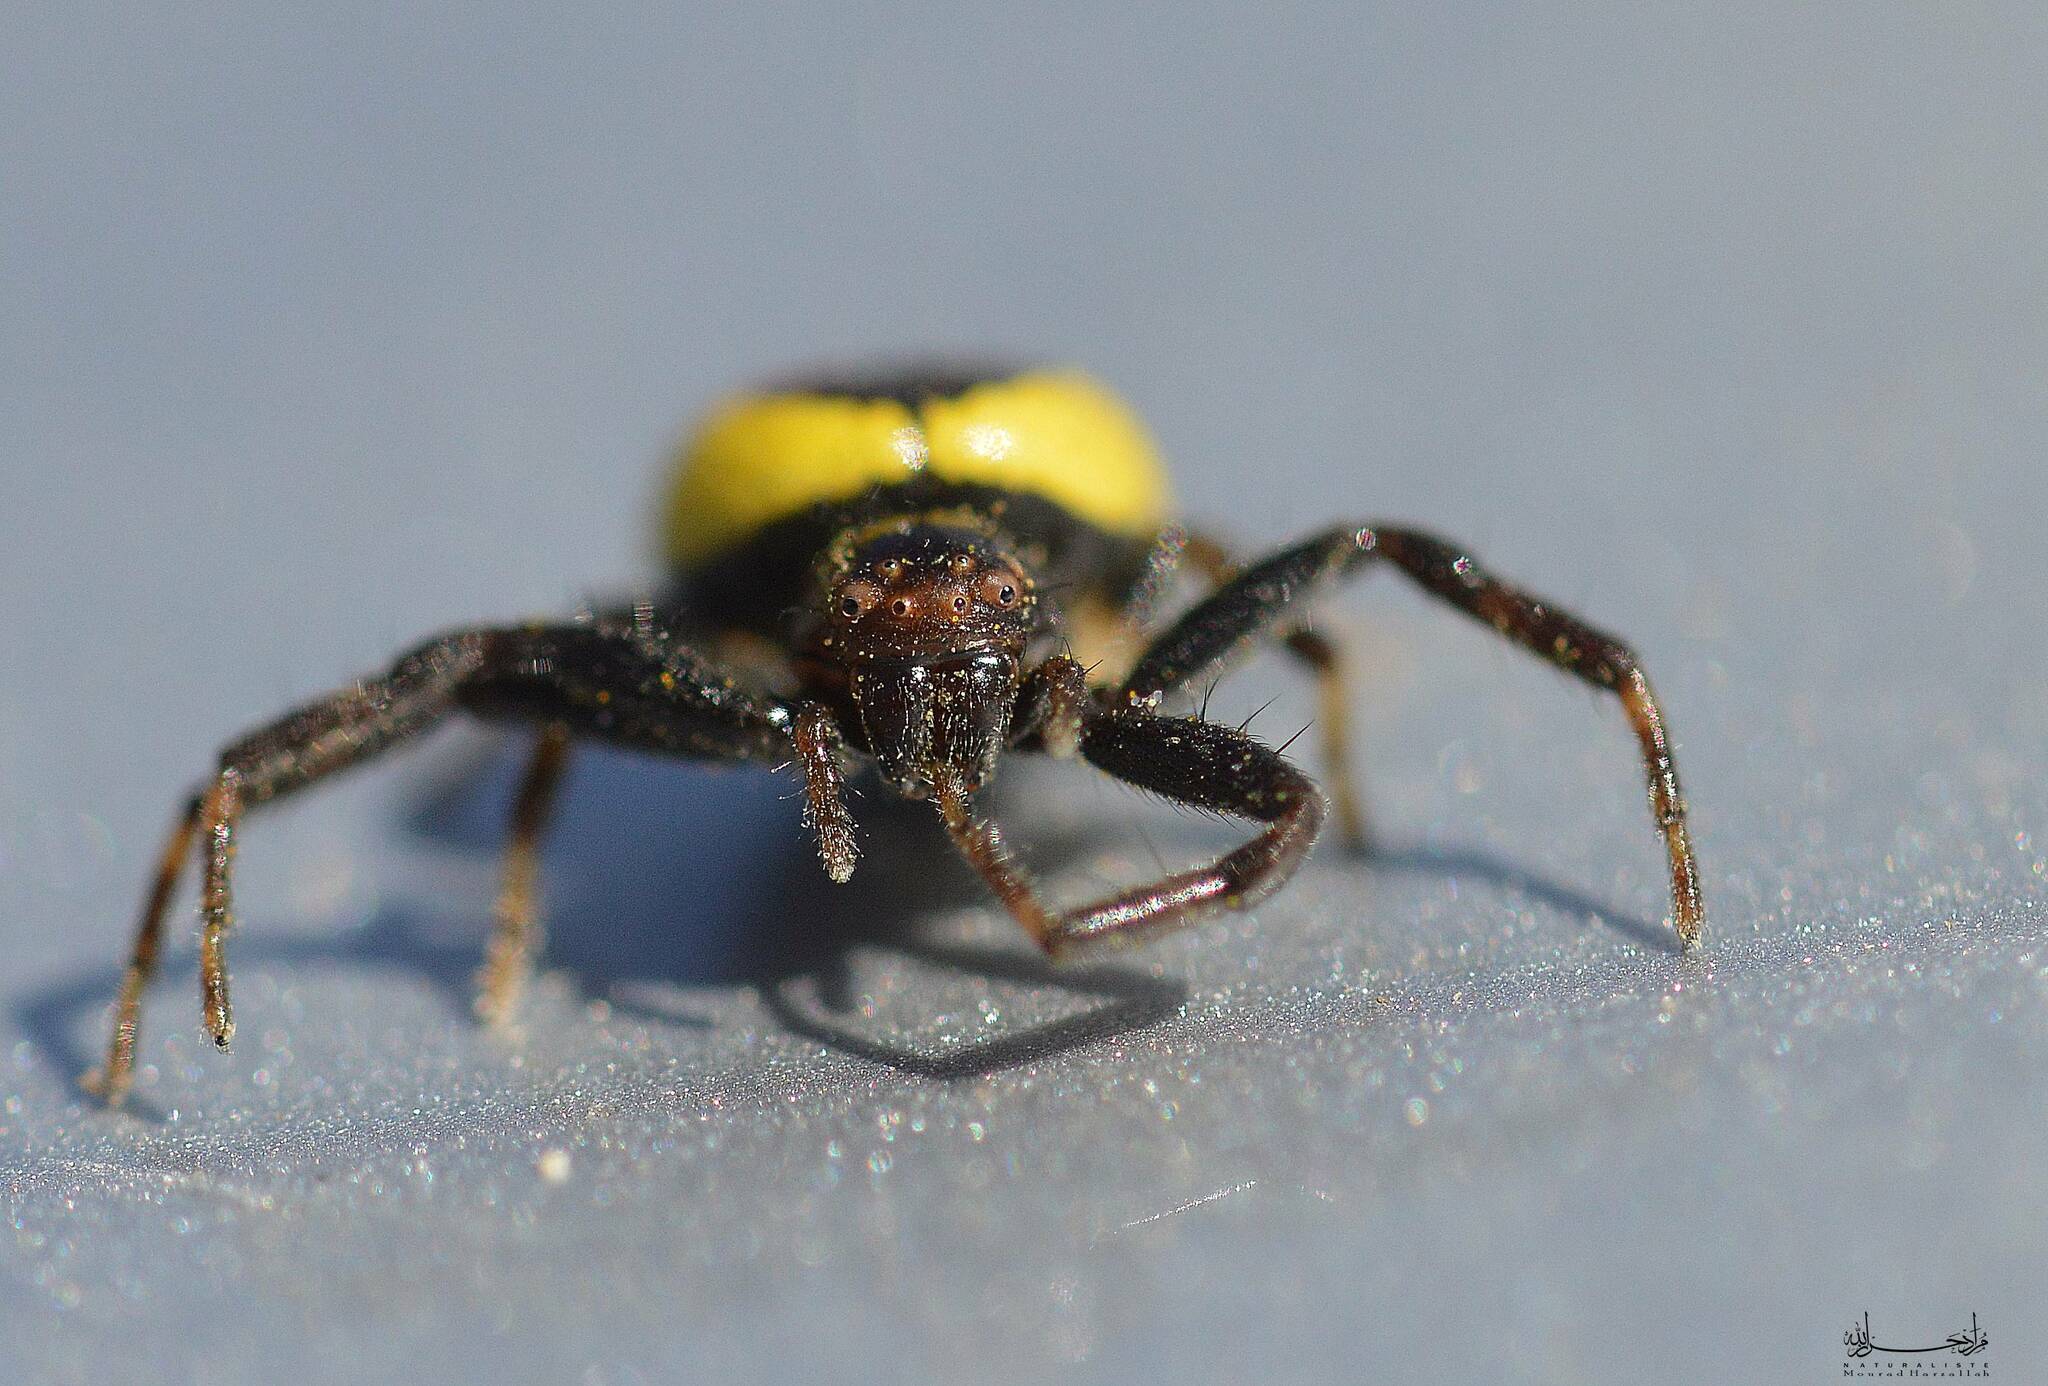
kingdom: Animalia
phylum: Arthropoda
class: Arachnida
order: Araneae
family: Thomisidae
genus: Synema
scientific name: Synema globosum
